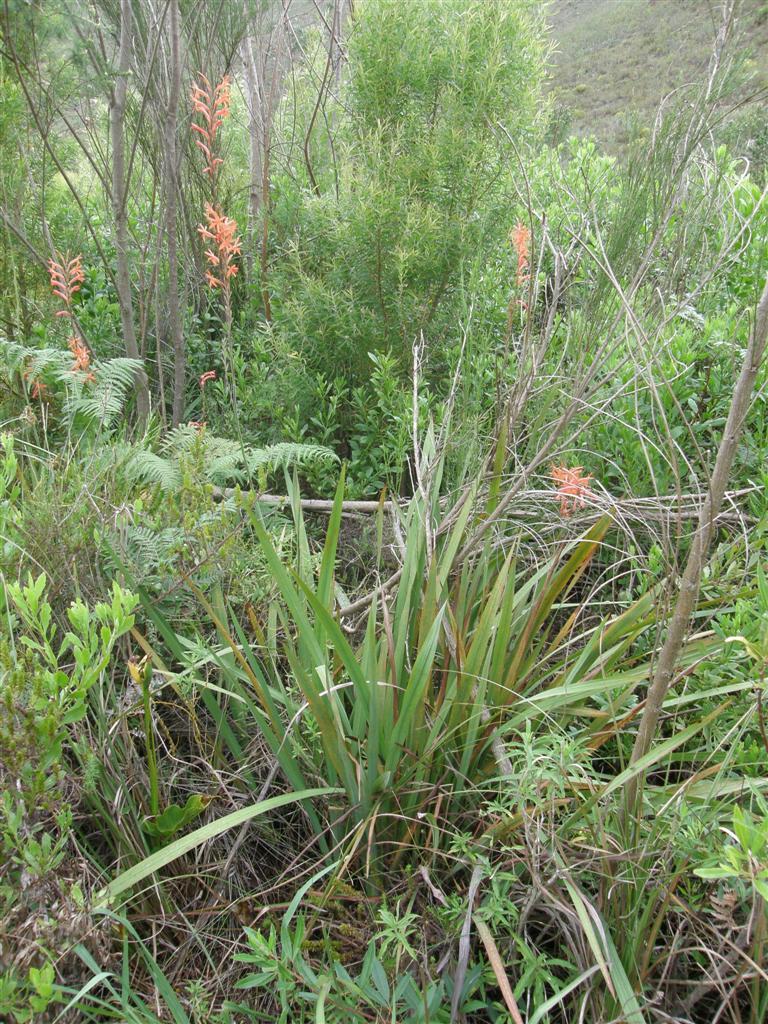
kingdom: Plantae
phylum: Tracheophyta
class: Liliopsida
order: Asparagales
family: Iridaceae
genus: Watsonia
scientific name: Watsonia meriana
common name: Bulbil bugle-lily
